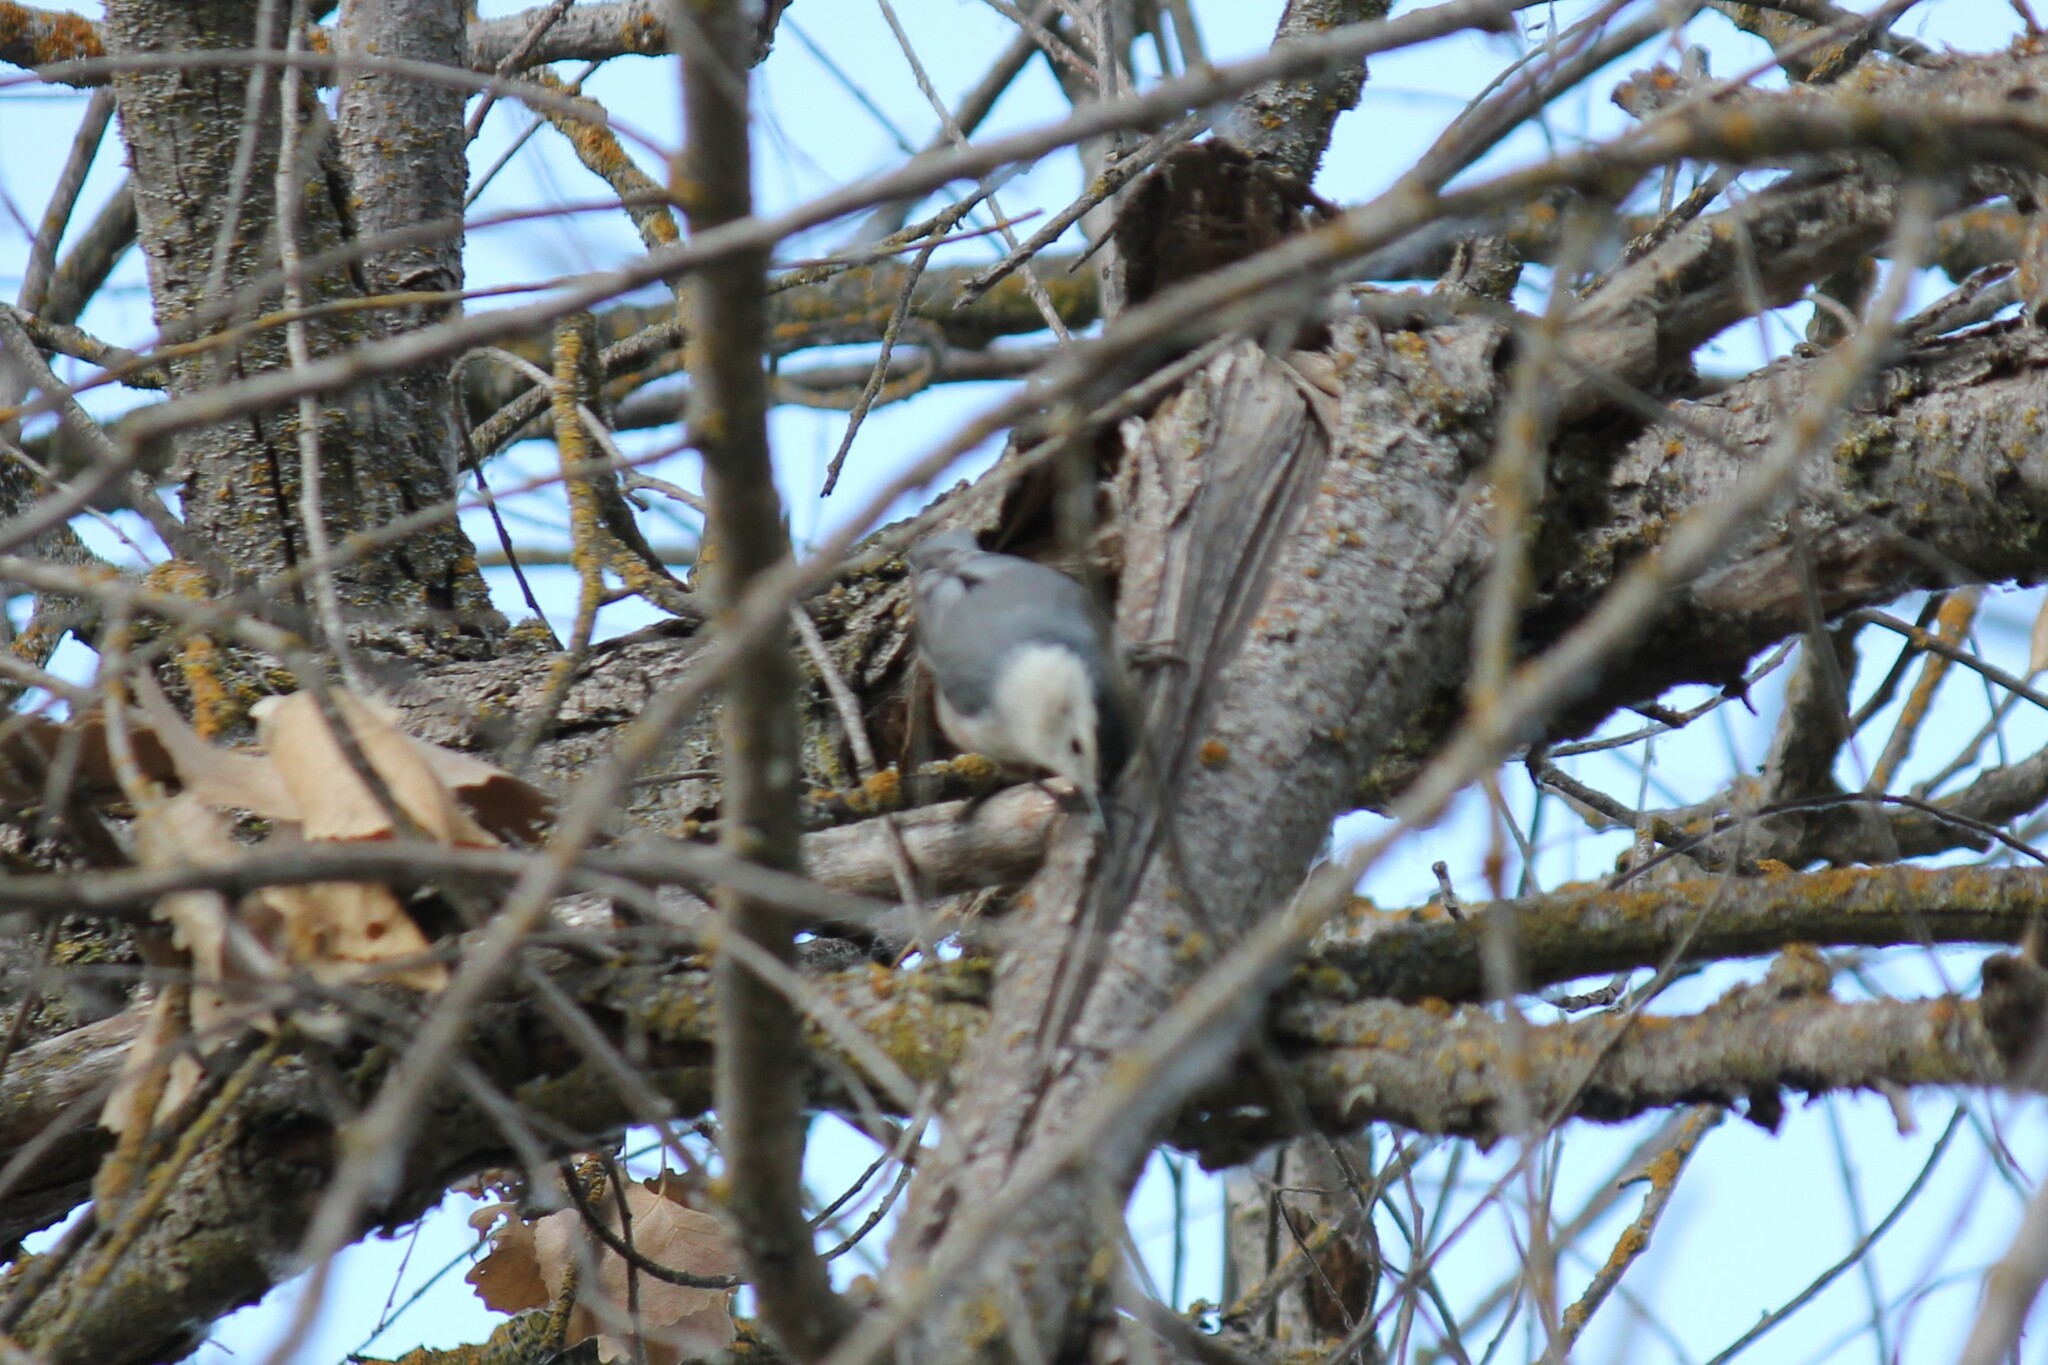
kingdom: Animalia
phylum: Chordata
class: Aves
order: Passeriformes
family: Sittidae
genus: Sitta
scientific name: Sitta carolinensis
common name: White-breasted nuthatch
